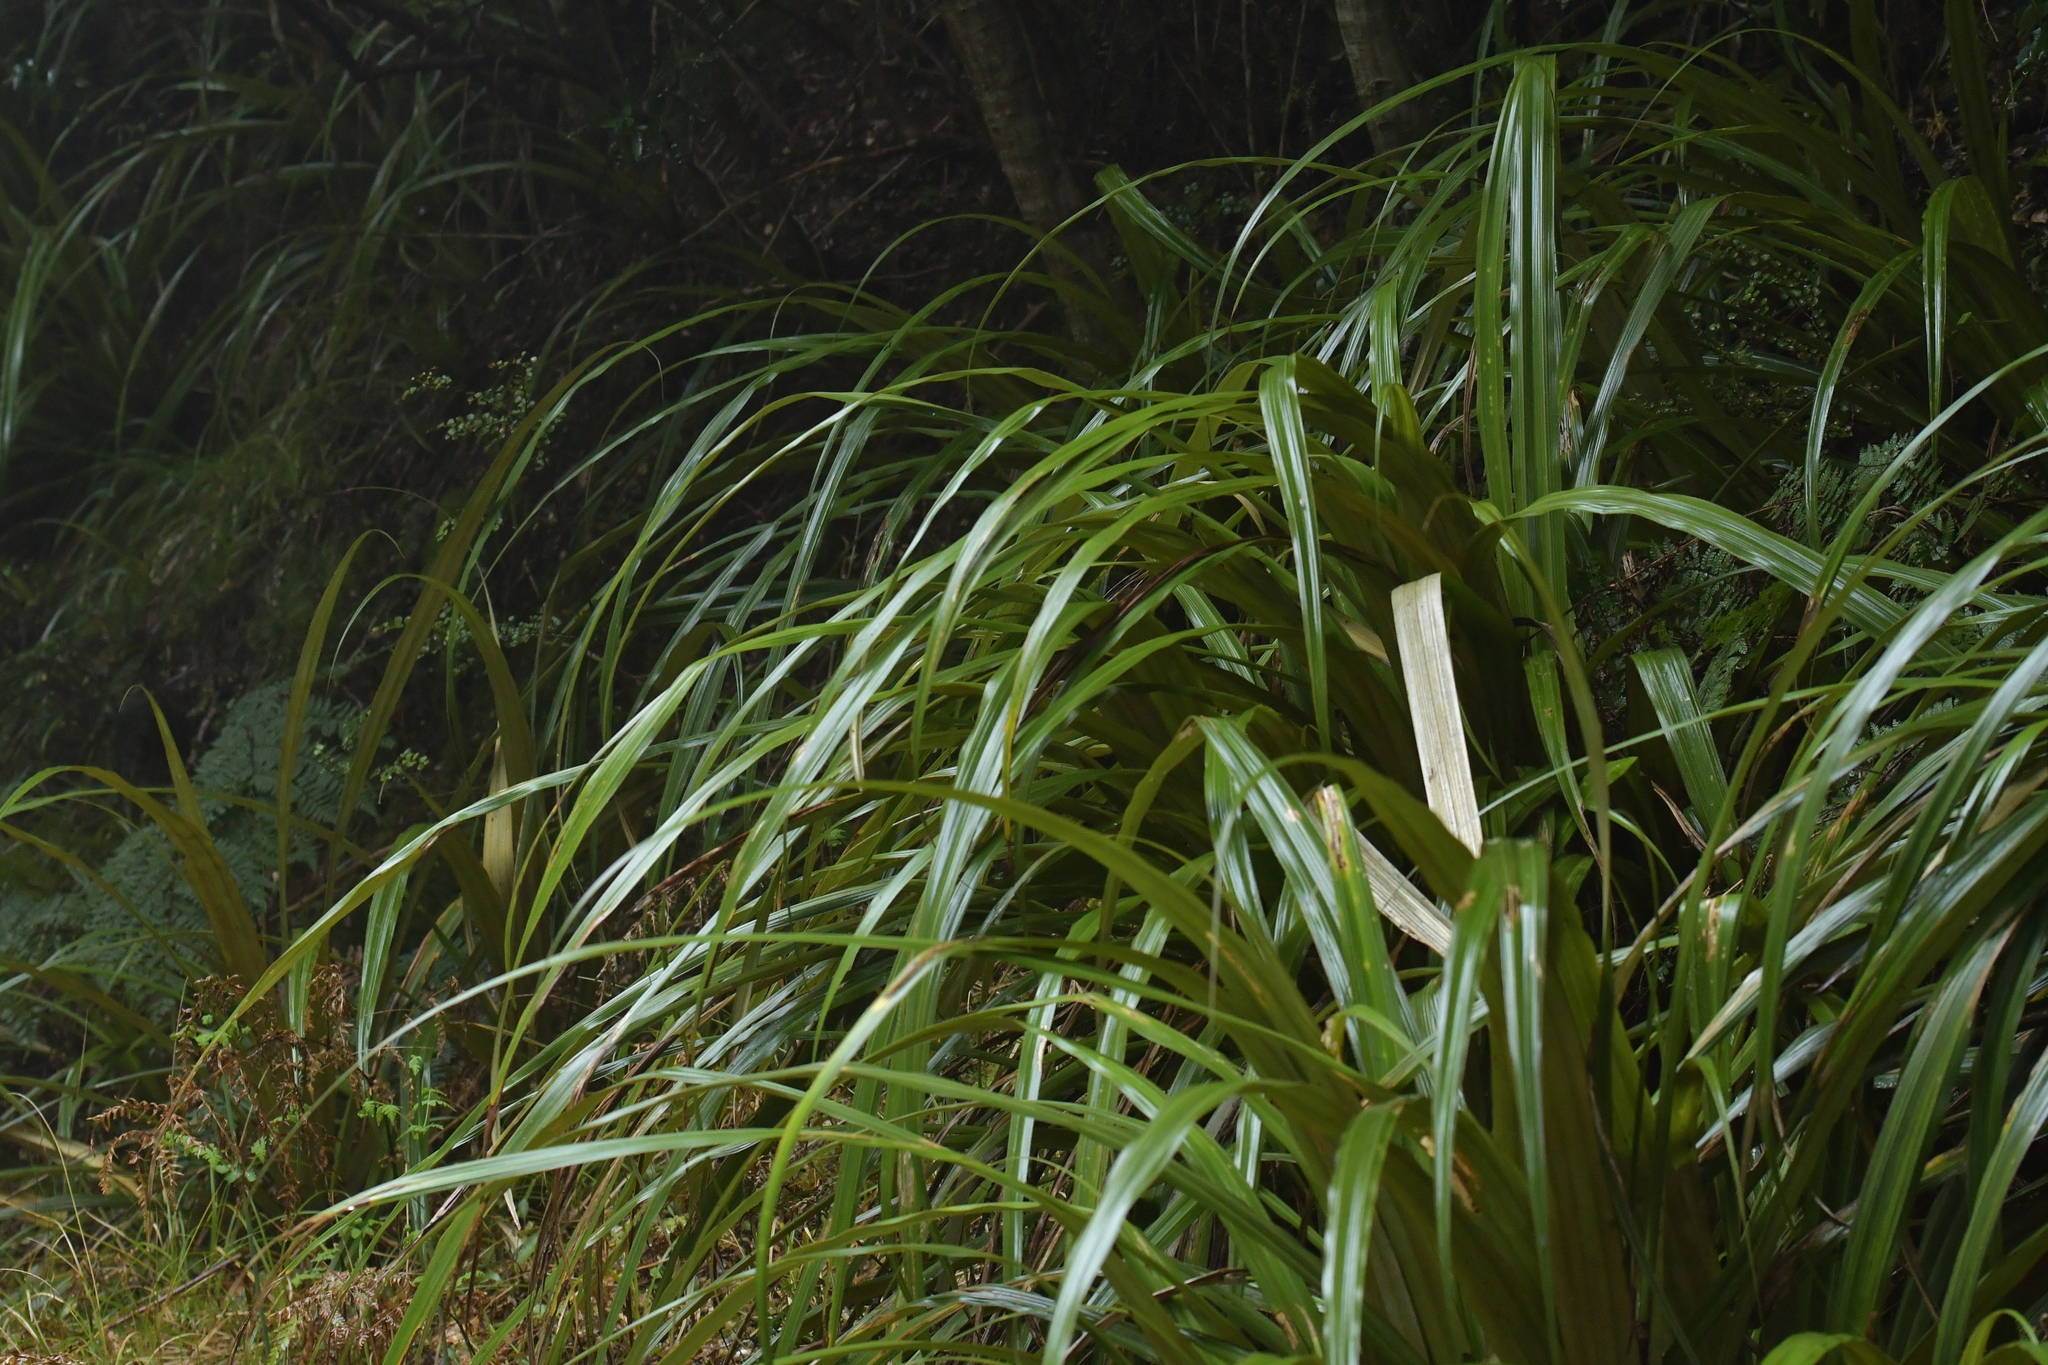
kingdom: Plantae
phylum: Tracheophyta
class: Liliopsida
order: Asparagales
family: Asteliaceae
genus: Astelia
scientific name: Astelia nivicola
